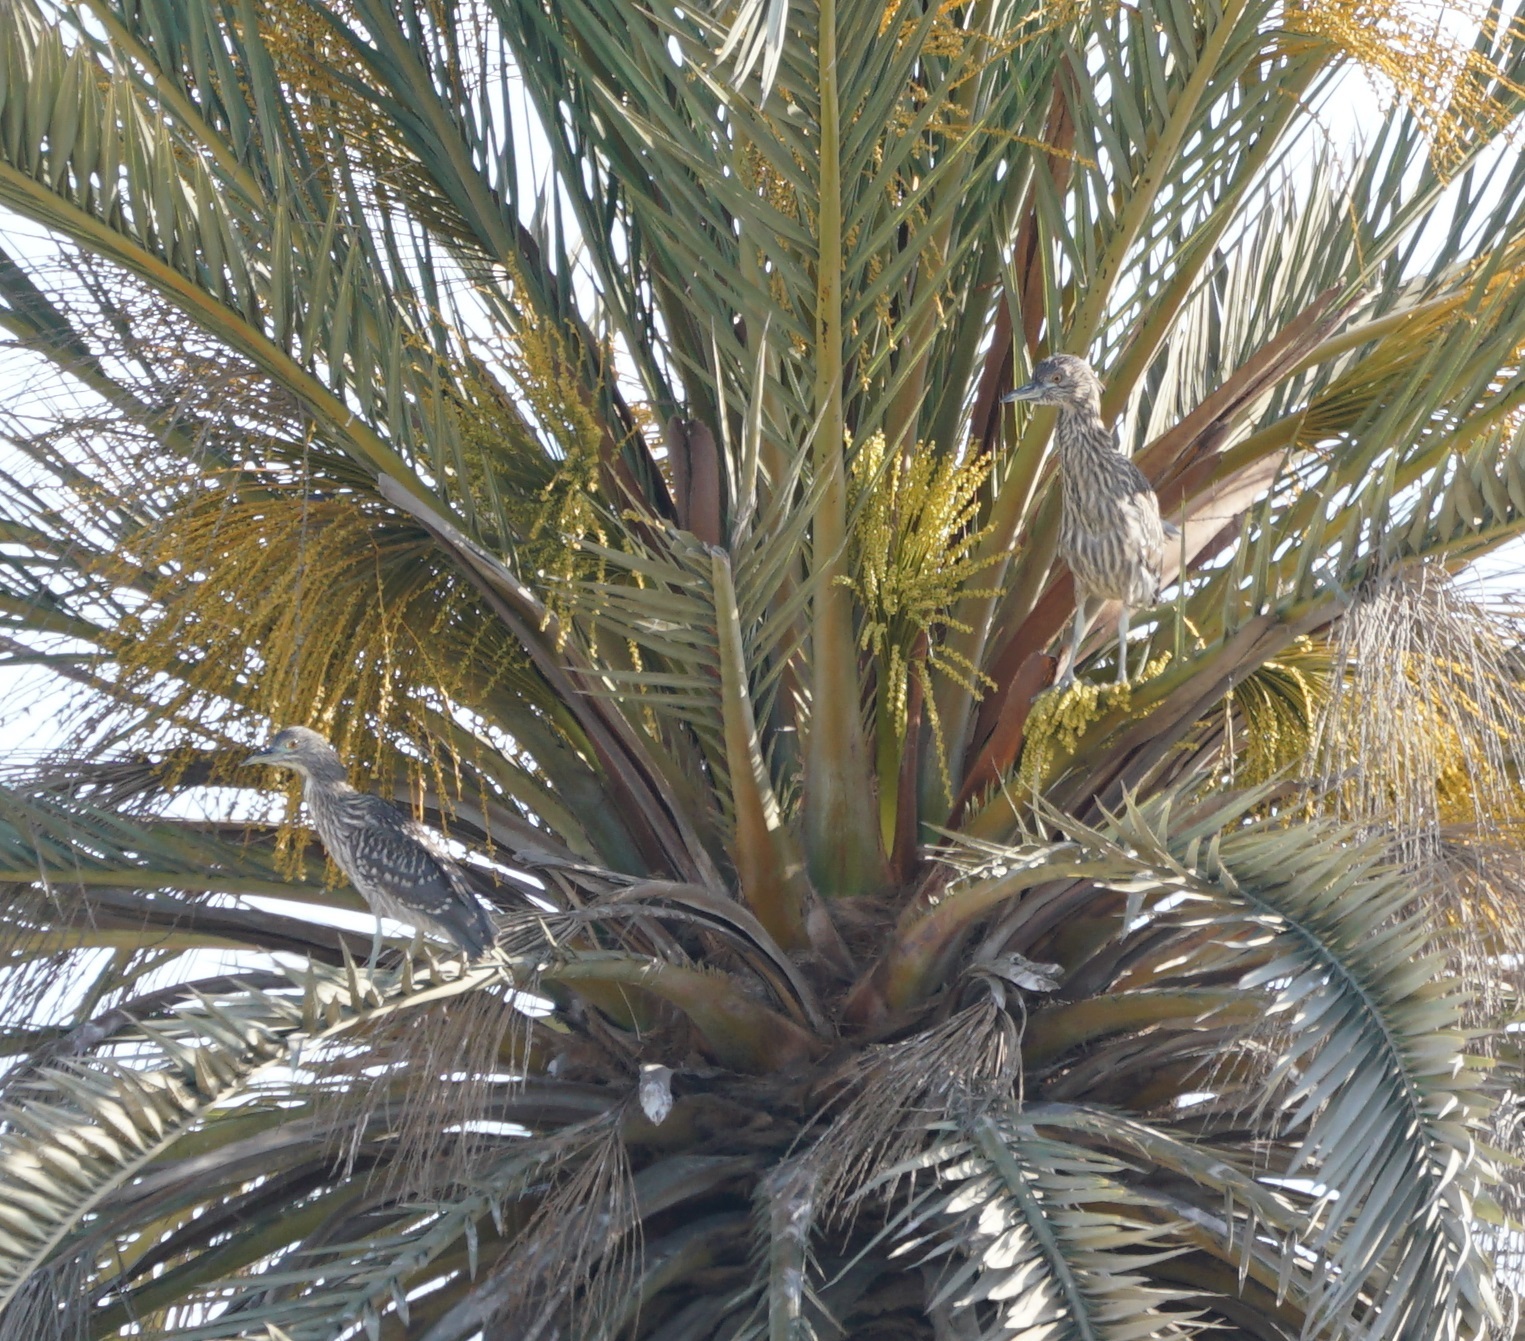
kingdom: Animalia
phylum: Chordata
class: Aves
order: Pelecaniformes
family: Ardeidae
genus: Nycticorax
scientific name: Nycticorax nycticorax
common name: Black-crowned night heron
